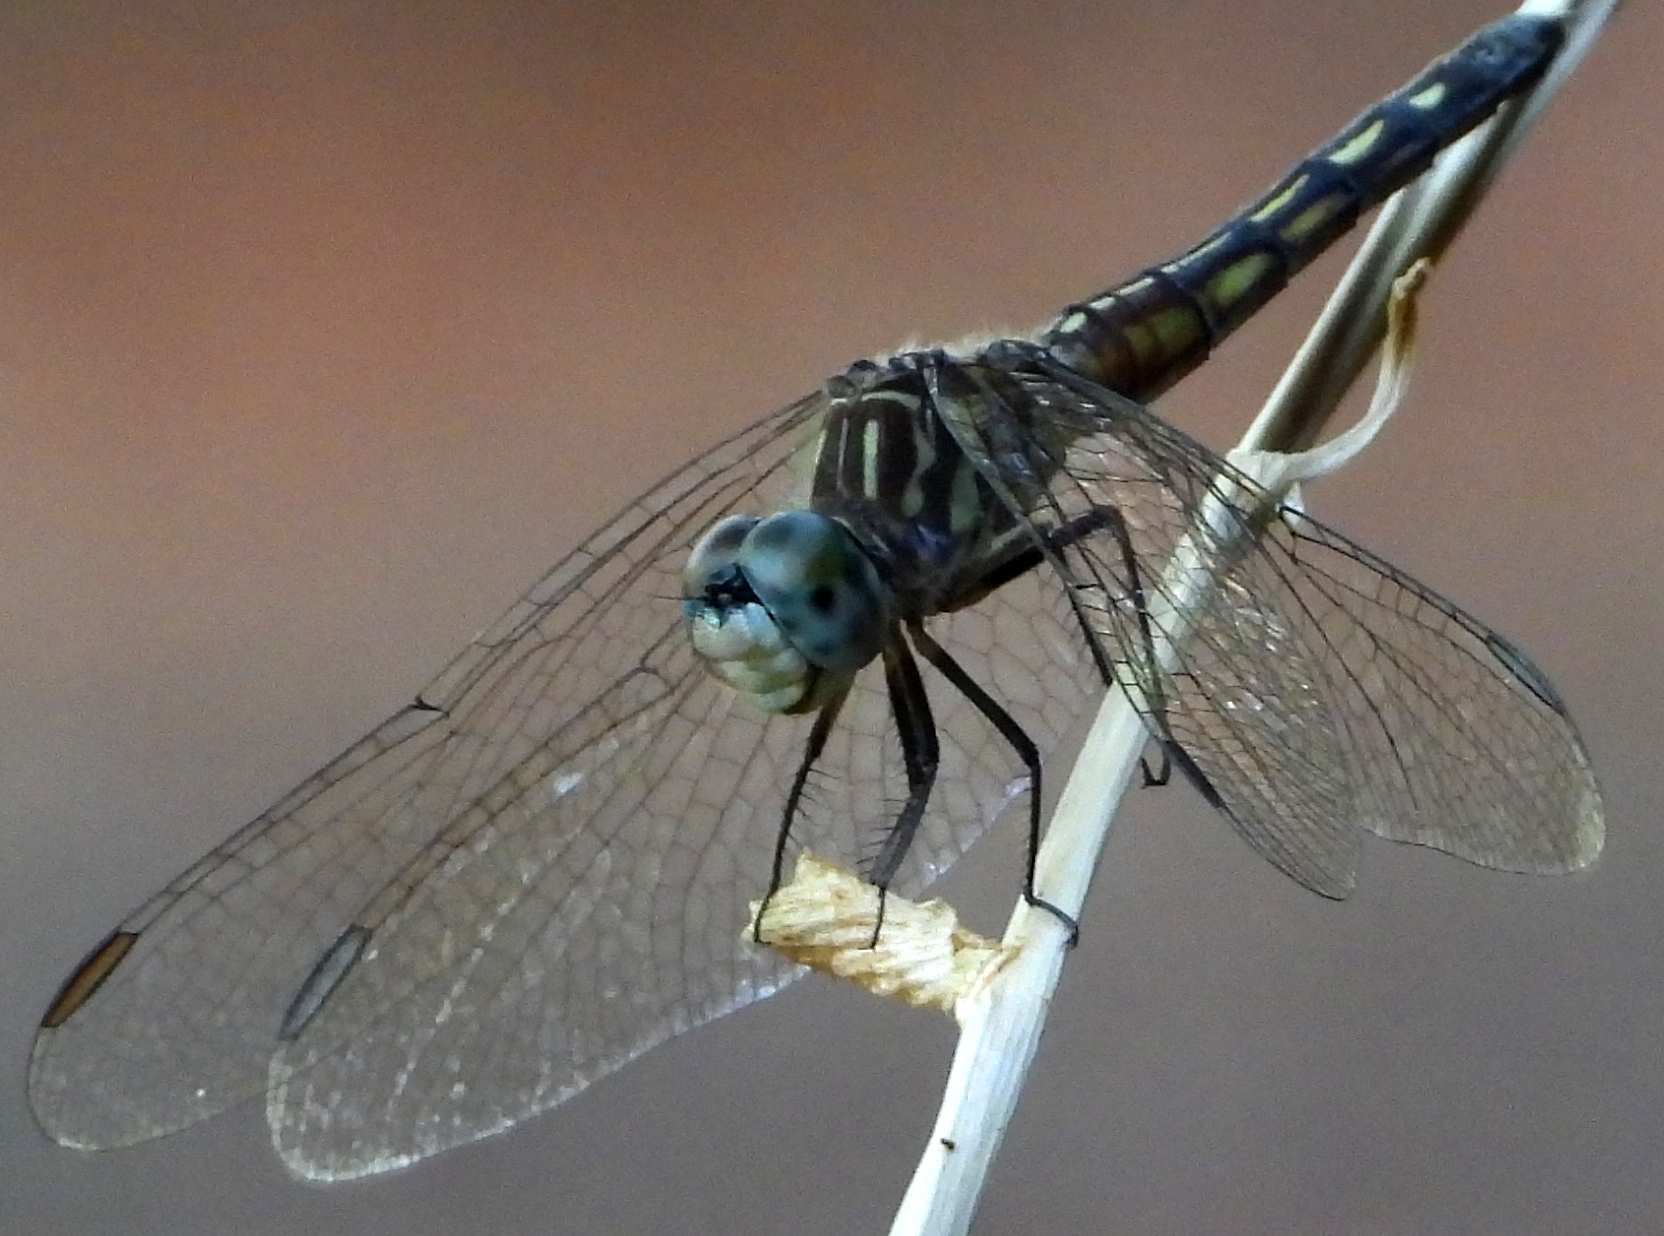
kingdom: Animalia
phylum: Arthropoda
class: Insecta
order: Odonata
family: Libellulidae
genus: Pachydiplax
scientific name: Pachydiplax longipennis
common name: Blue dasher
